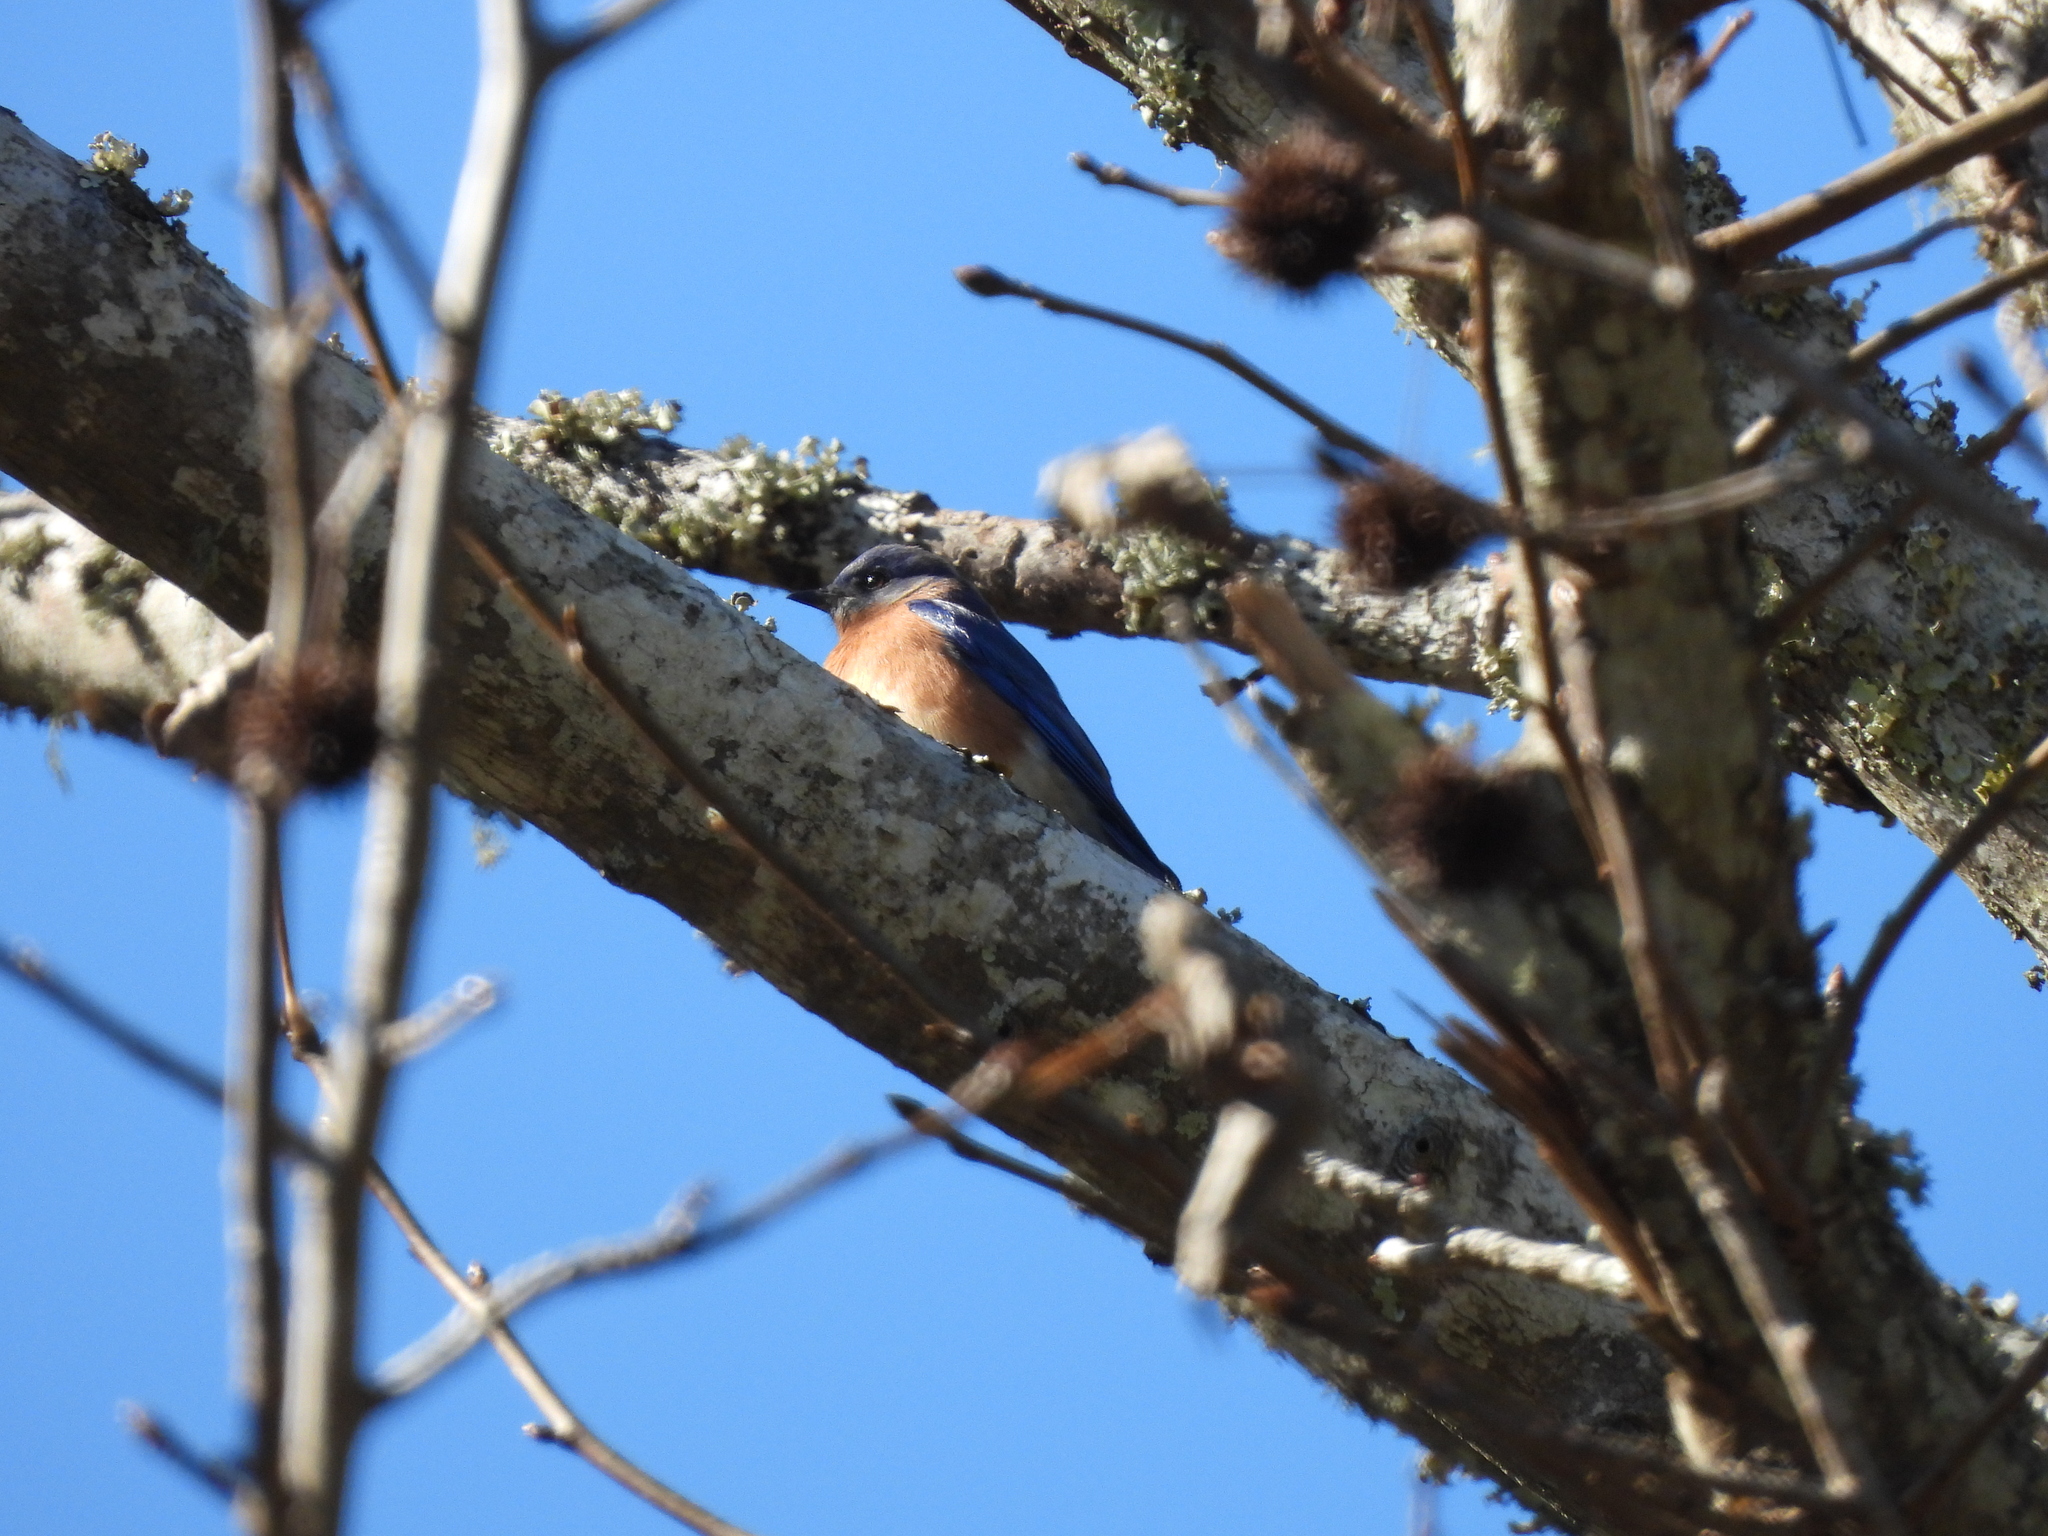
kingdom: Animalia
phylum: Chordata
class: Aves
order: Passeriformes
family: Turdidae
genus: Sialia
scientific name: Sialia sialis
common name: Eastern bluebird
